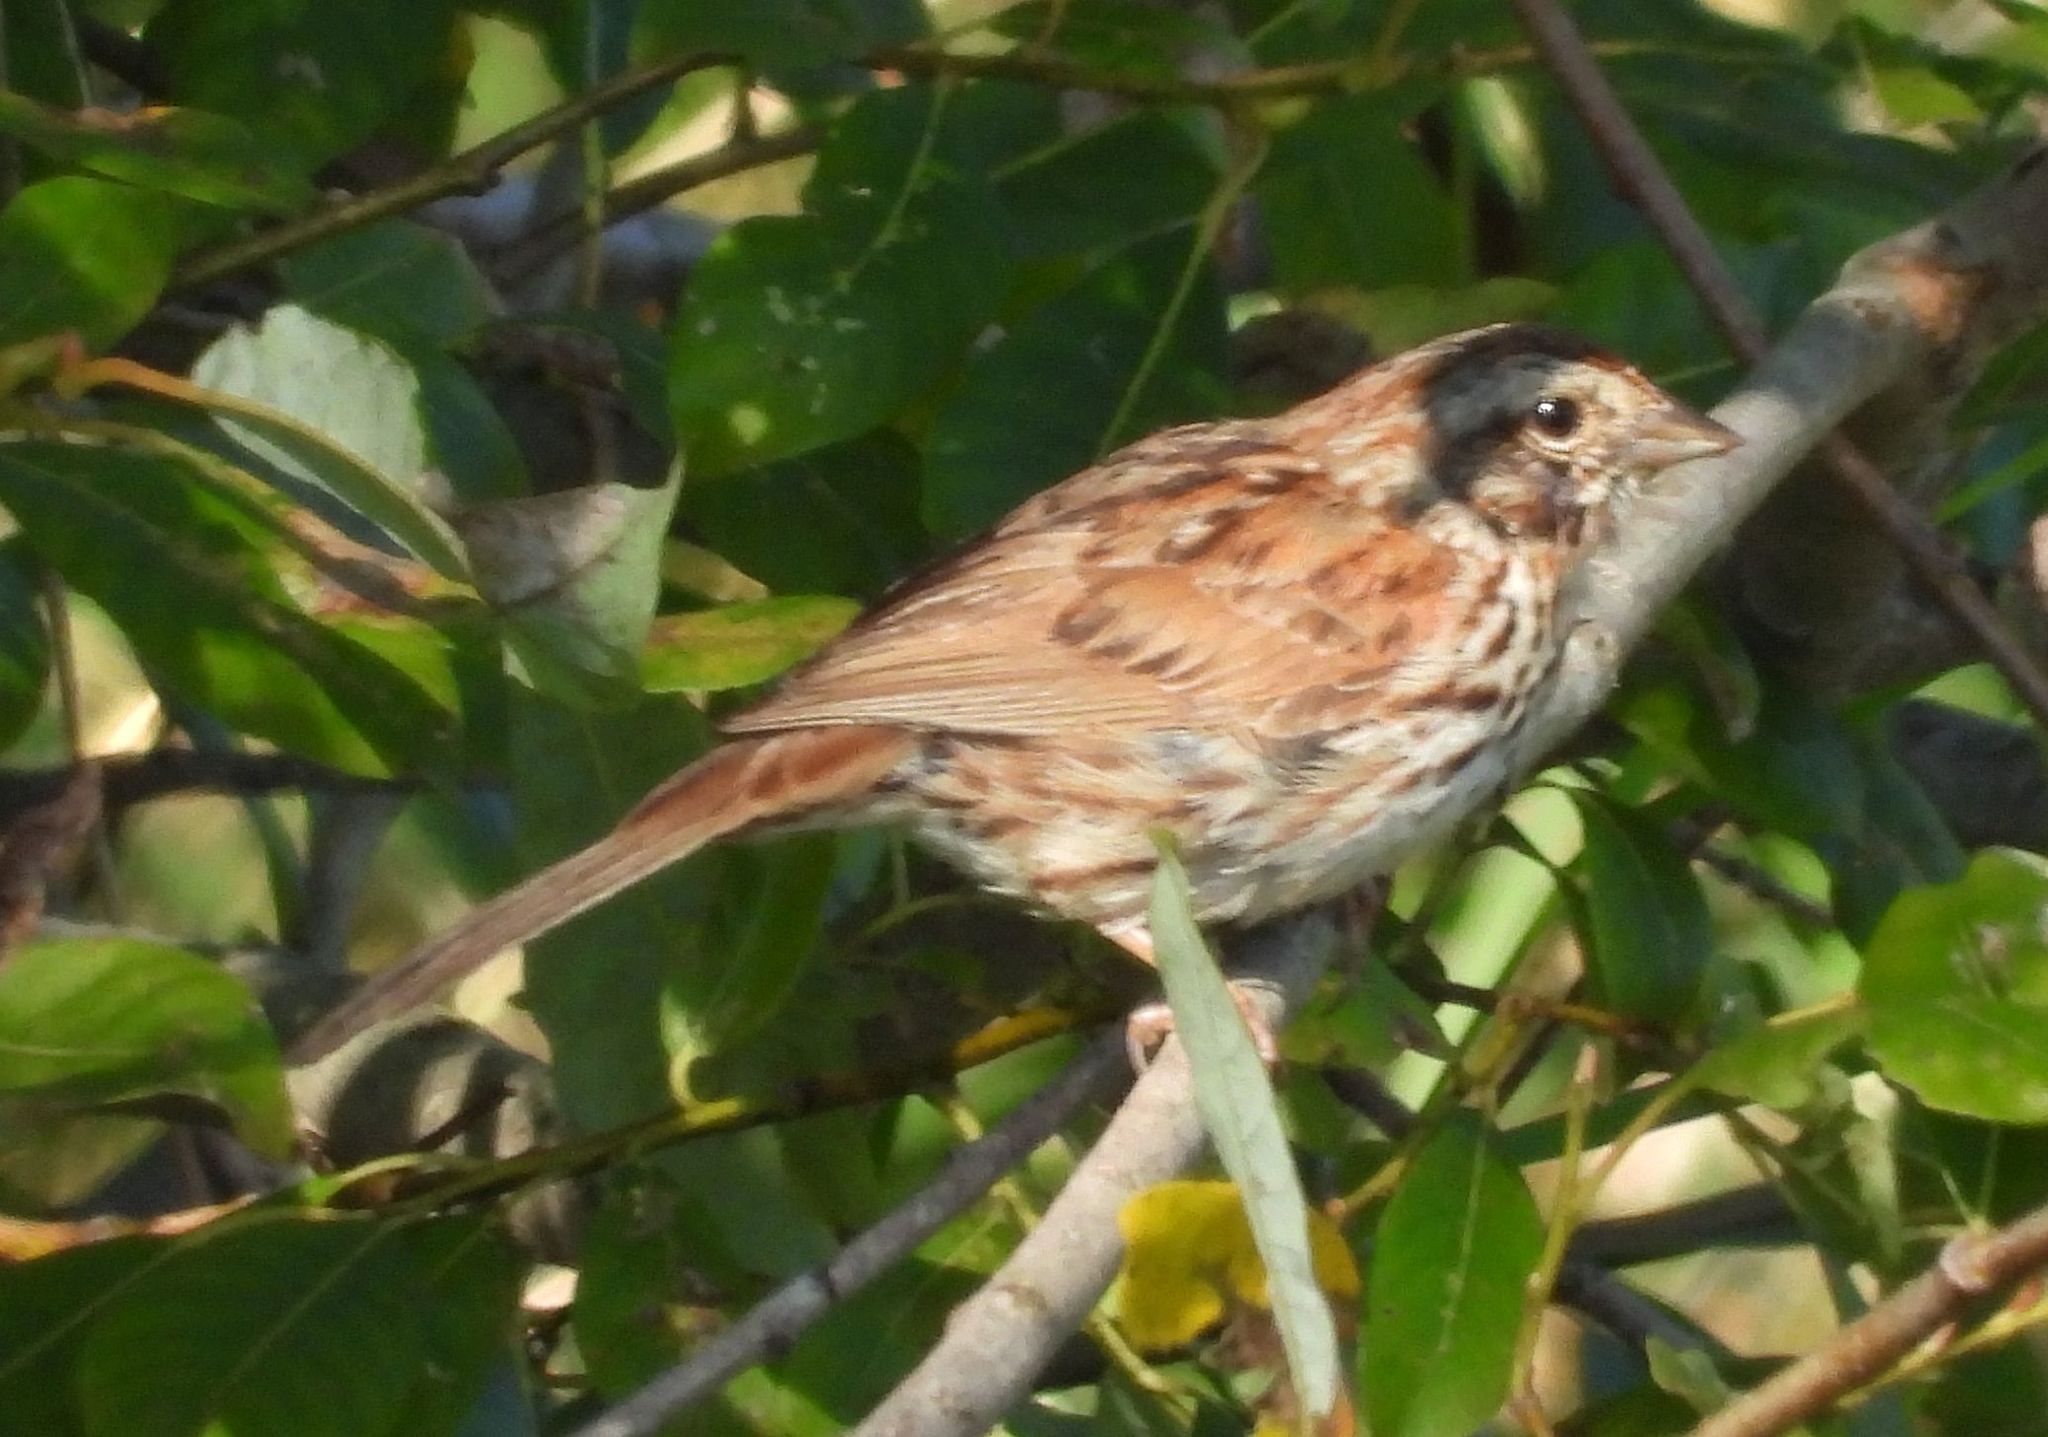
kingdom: Animalia
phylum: Chordata
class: Aves
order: Passeriformes
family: Passerellidae
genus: Melospiza
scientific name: Melospiza melodia
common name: Song sparrow
